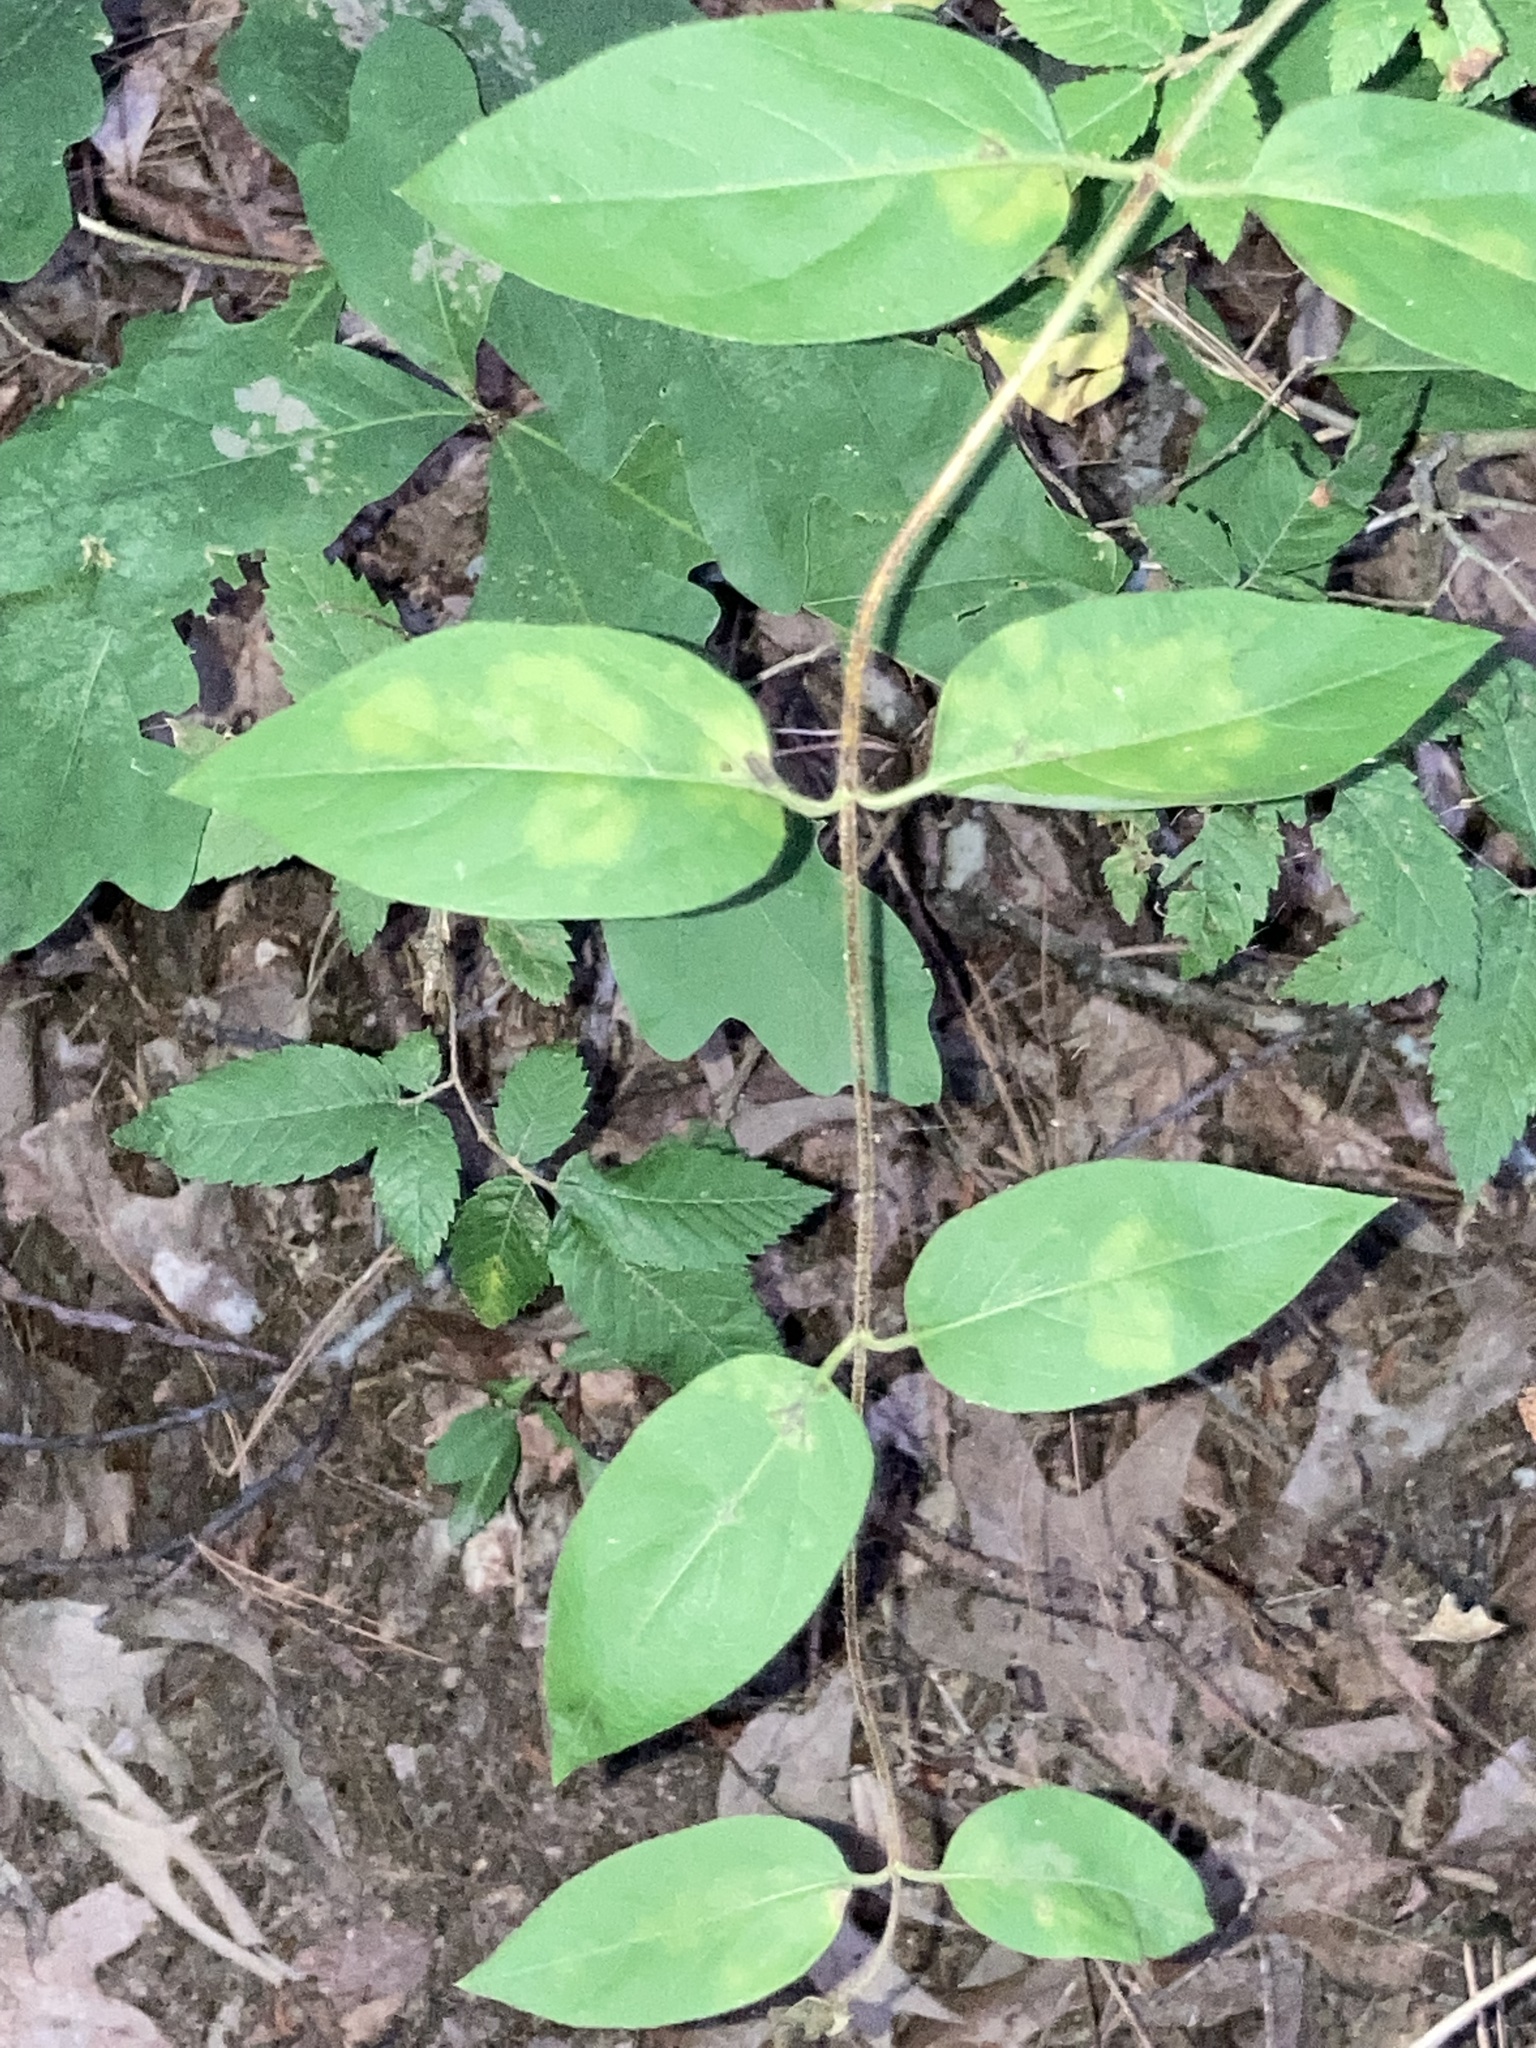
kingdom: Plantae
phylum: Tracheophyta
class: Magnoliopsida
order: Dipsacales
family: Caprifoliaceae
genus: Lonicera
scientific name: Lonicera japonica
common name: Japanese honeysuckle
